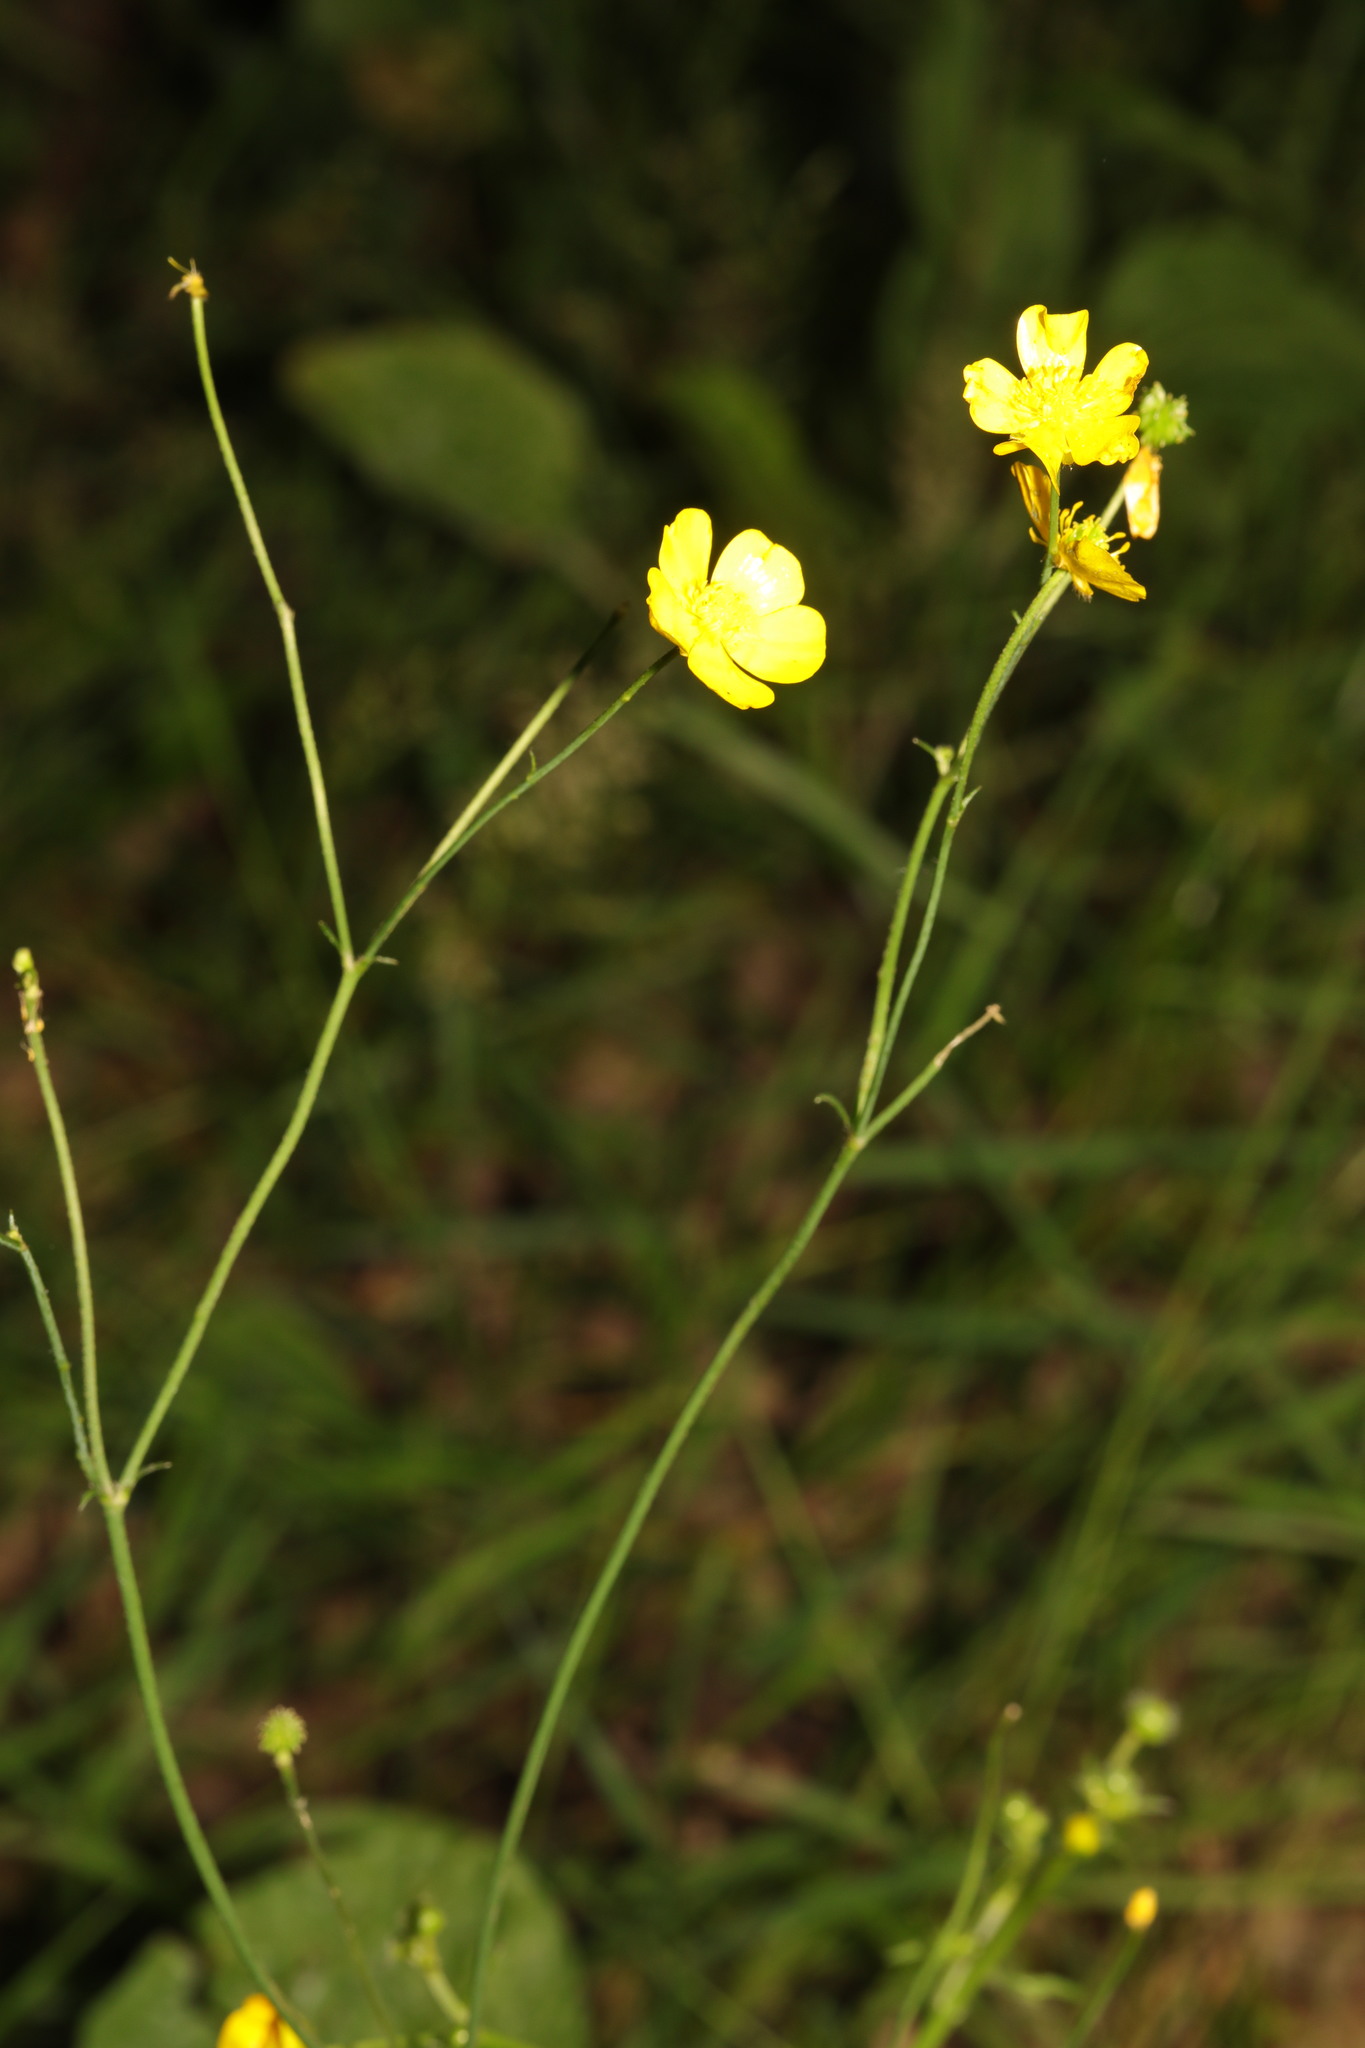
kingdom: Plantae
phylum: Tracheophyta
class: Magnoliopsida
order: Ranunculales
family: Ranunculaceae
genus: Ranunculus
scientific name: Ranunculus acris
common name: Meadow buttercup
